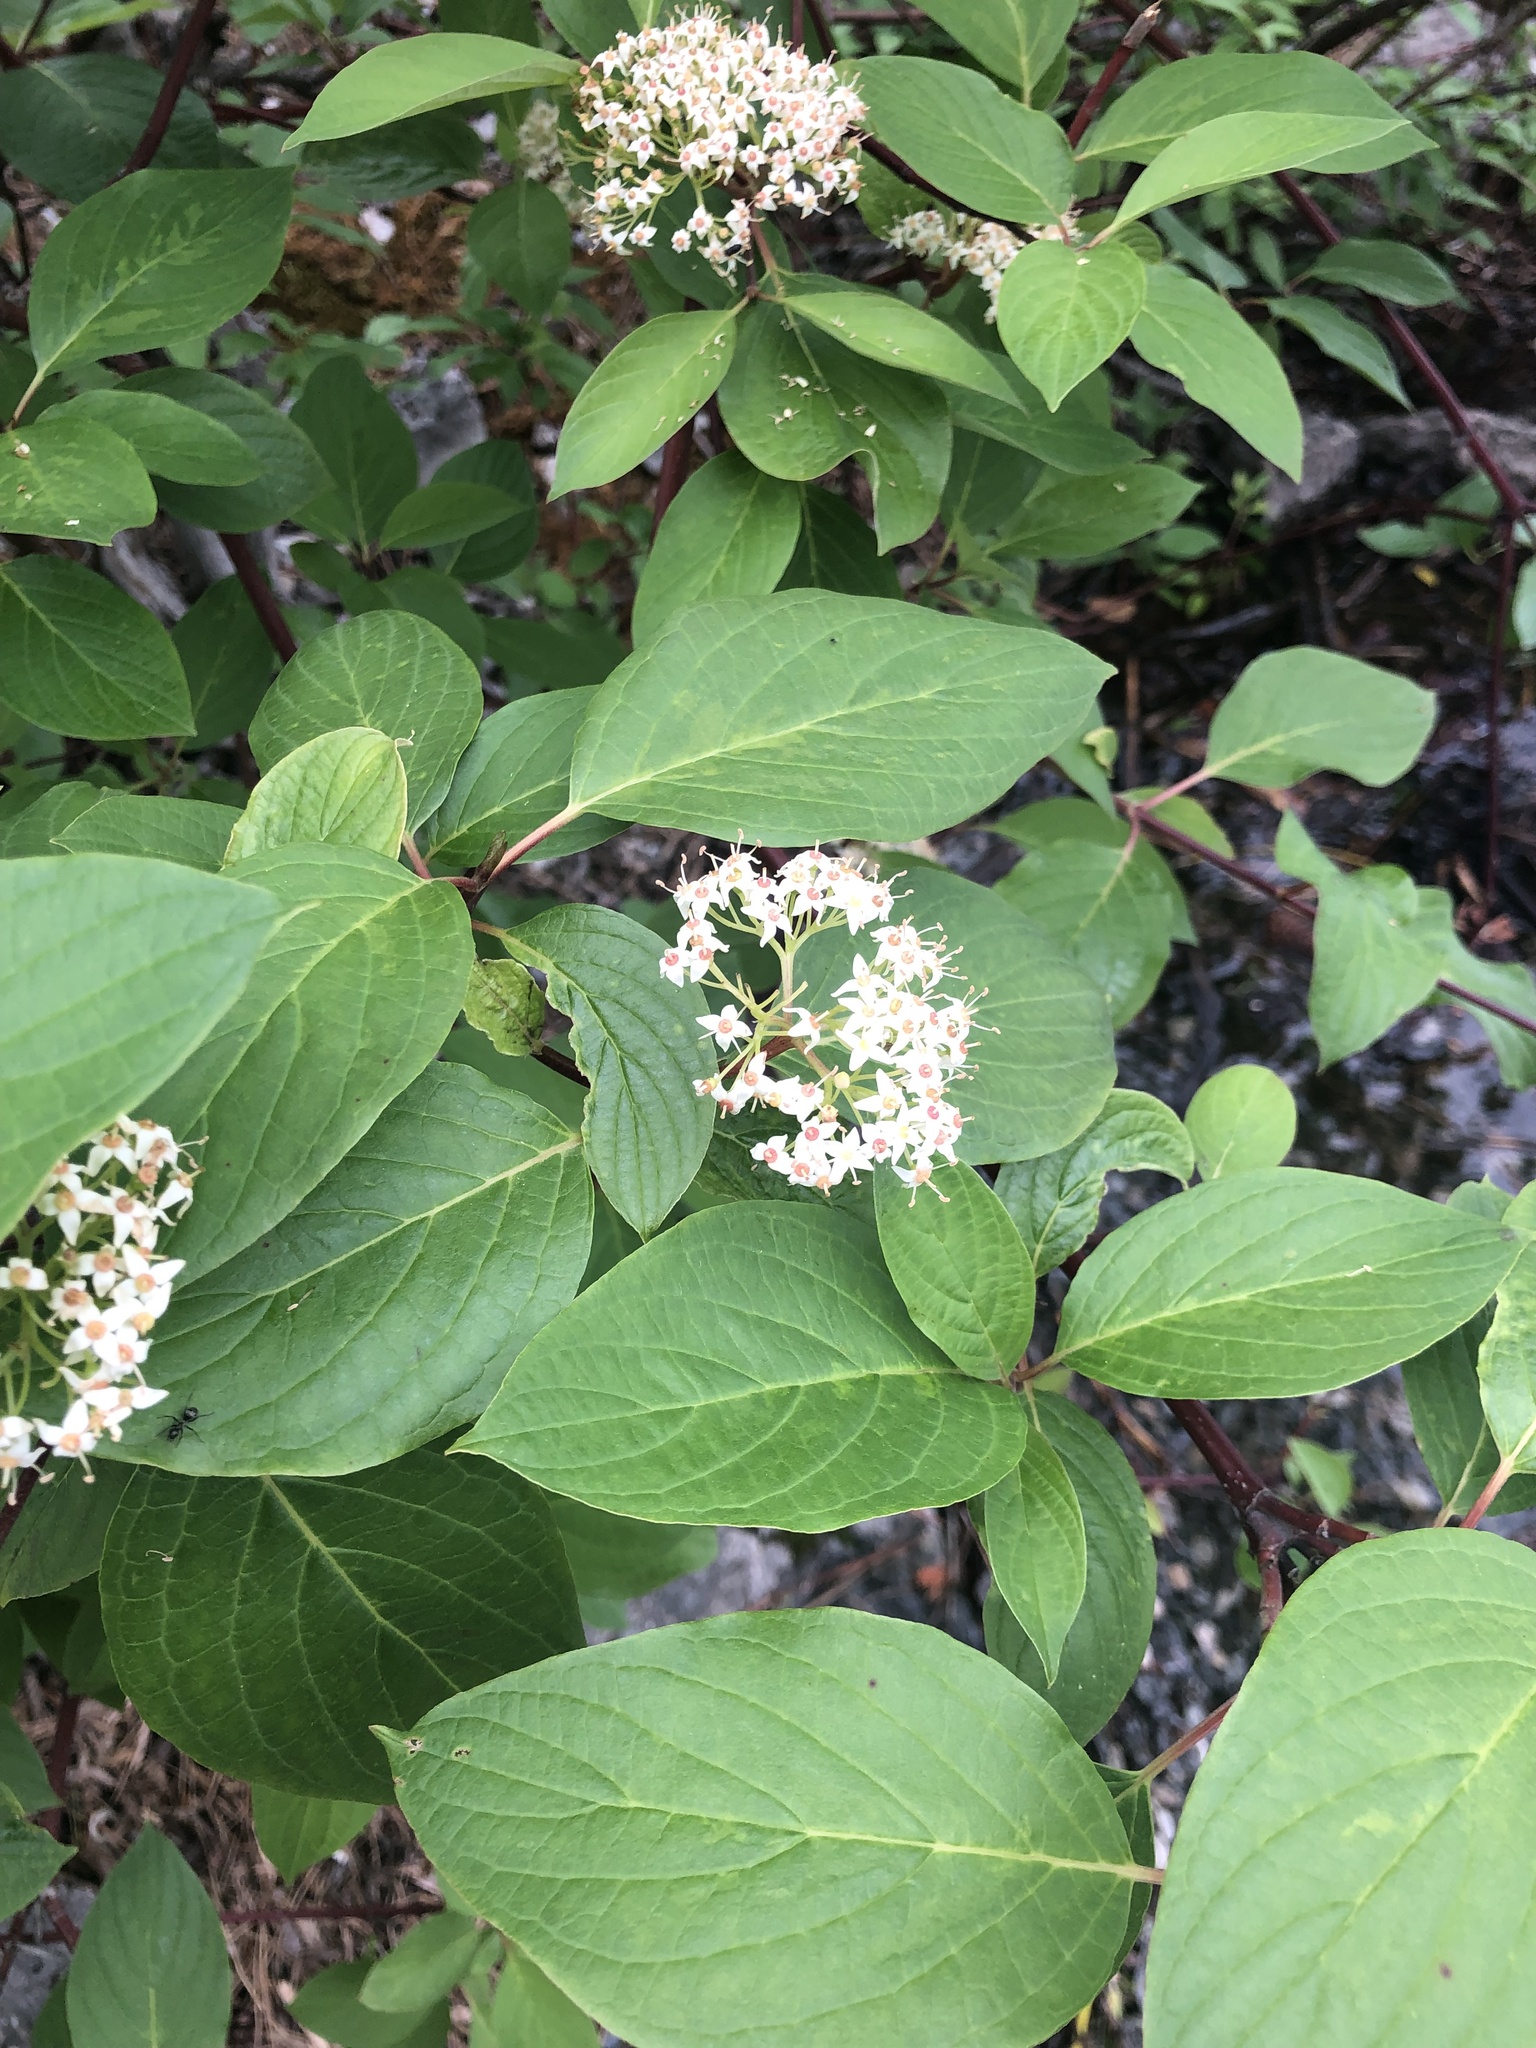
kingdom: Plantae
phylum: Tracheophyta
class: Magnoliopsida
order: Cornales
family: Cornaceae
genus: Cornus
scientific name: Cornus sericea
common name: Red-osier dogwood
